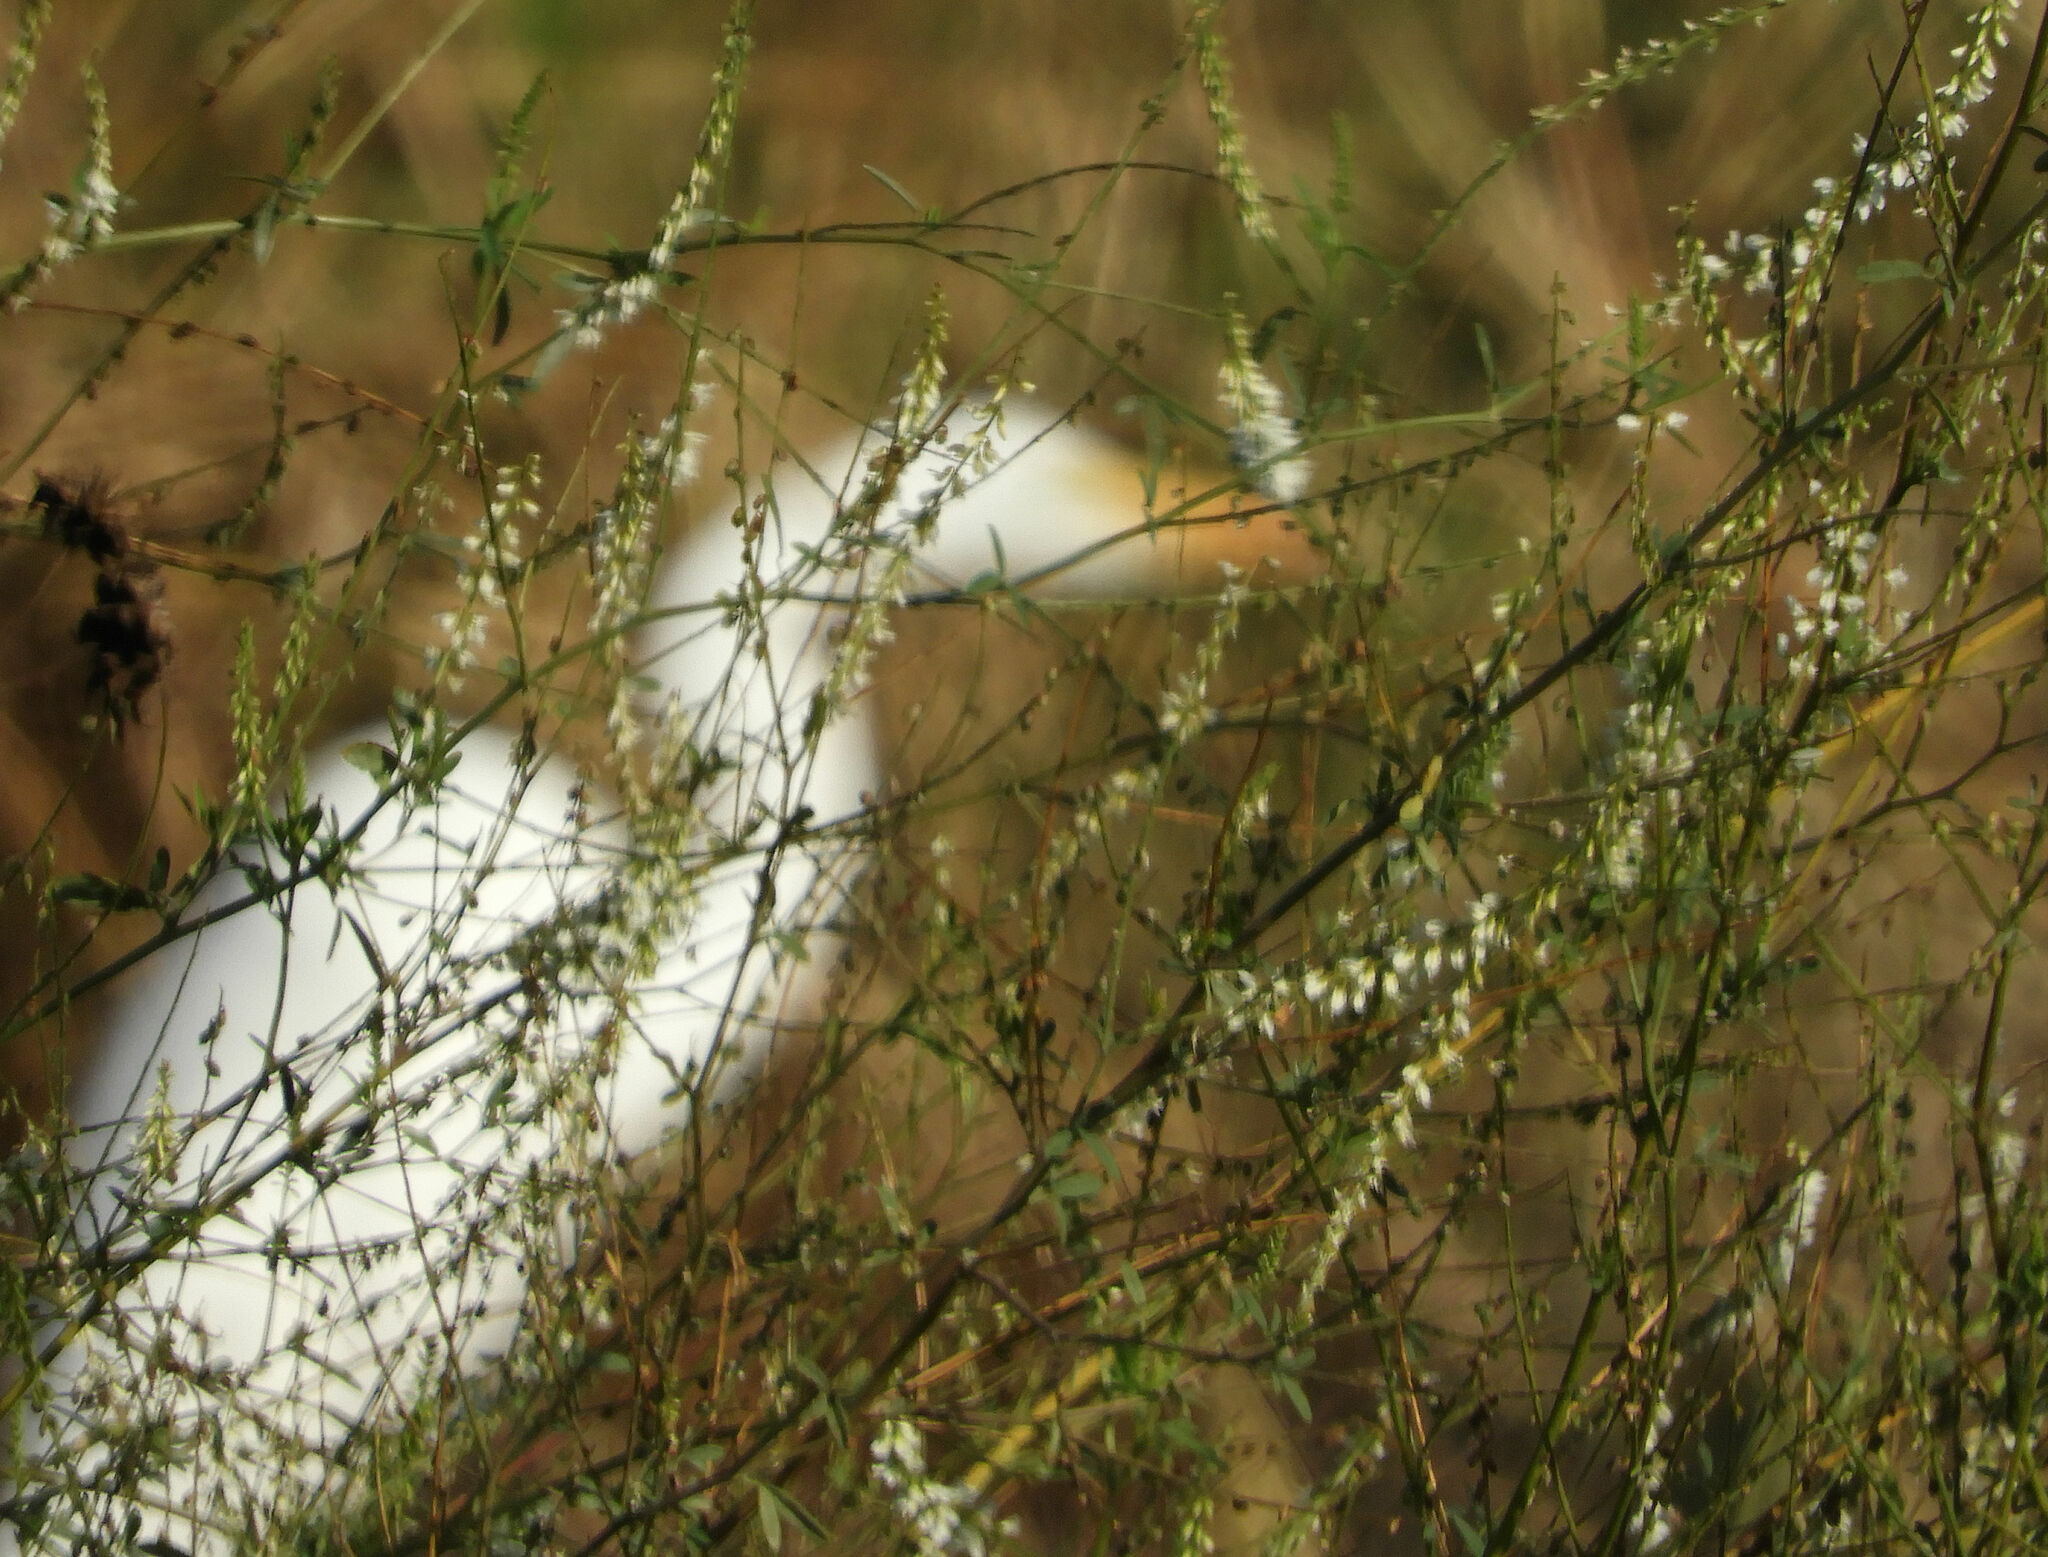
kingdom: Plantae
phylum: Tracheophyta
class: Magnoliopsida
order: Fabales
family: Fabaceae
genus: Melilotus
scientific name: Melilotus albus
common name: White melilot
